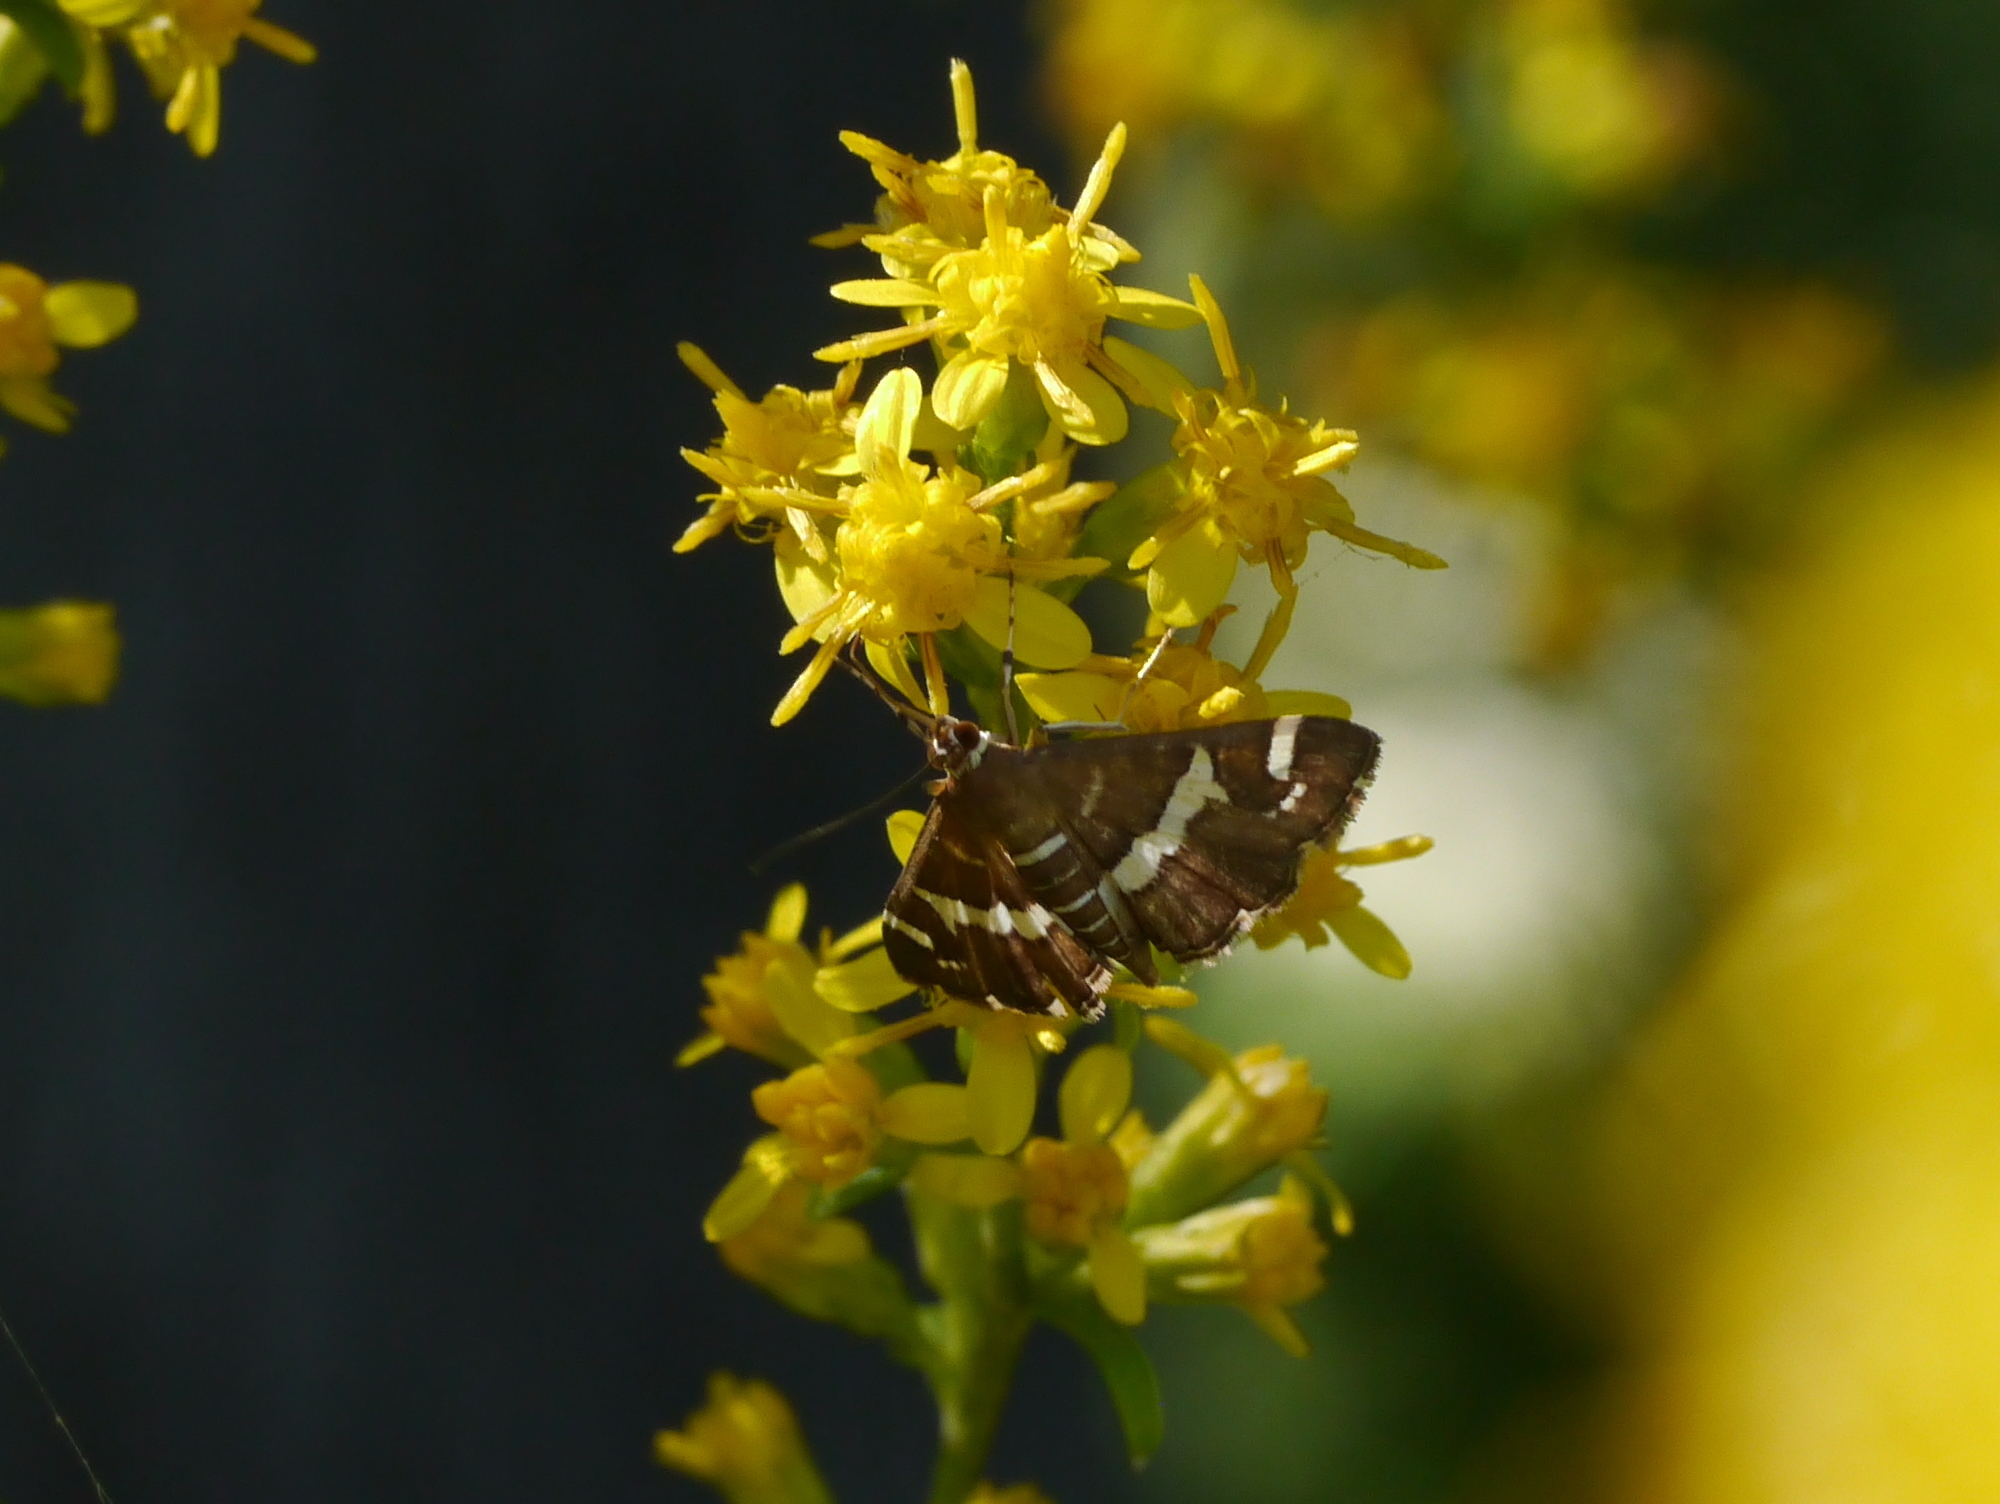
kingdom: Animalia
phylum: Arthropoda
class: Insecta
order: Lepidoptera
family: Crambidae
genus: Spoladea
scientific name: Spoladea recurvalis
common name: Beet webworm moth
